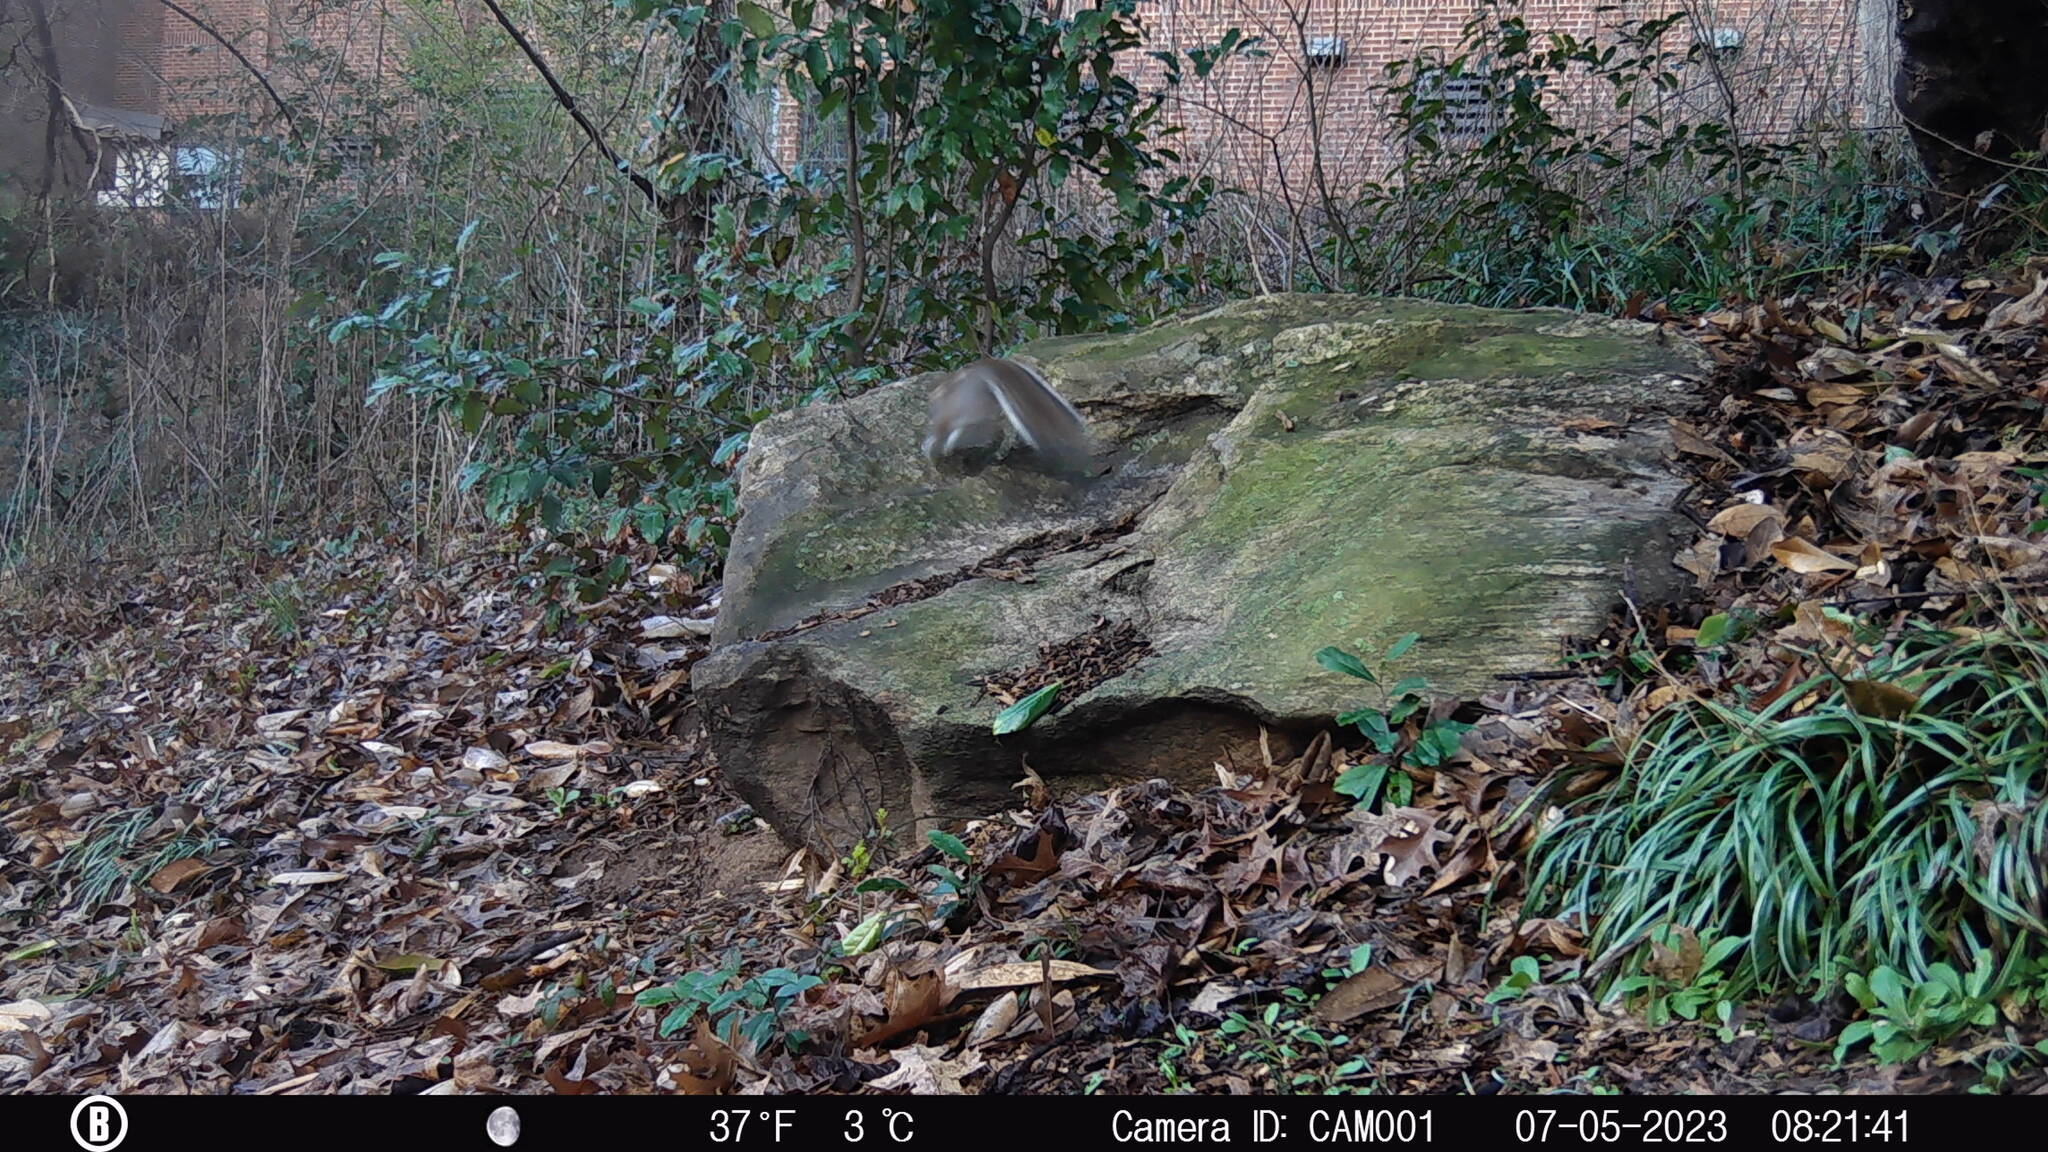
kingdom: Animalia
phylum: Chordata
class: Mammalia
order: Rodentia
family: Sciuridae
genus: Sciurus
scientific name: Sciurus carolinensis
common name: Eastern gray squirrel
